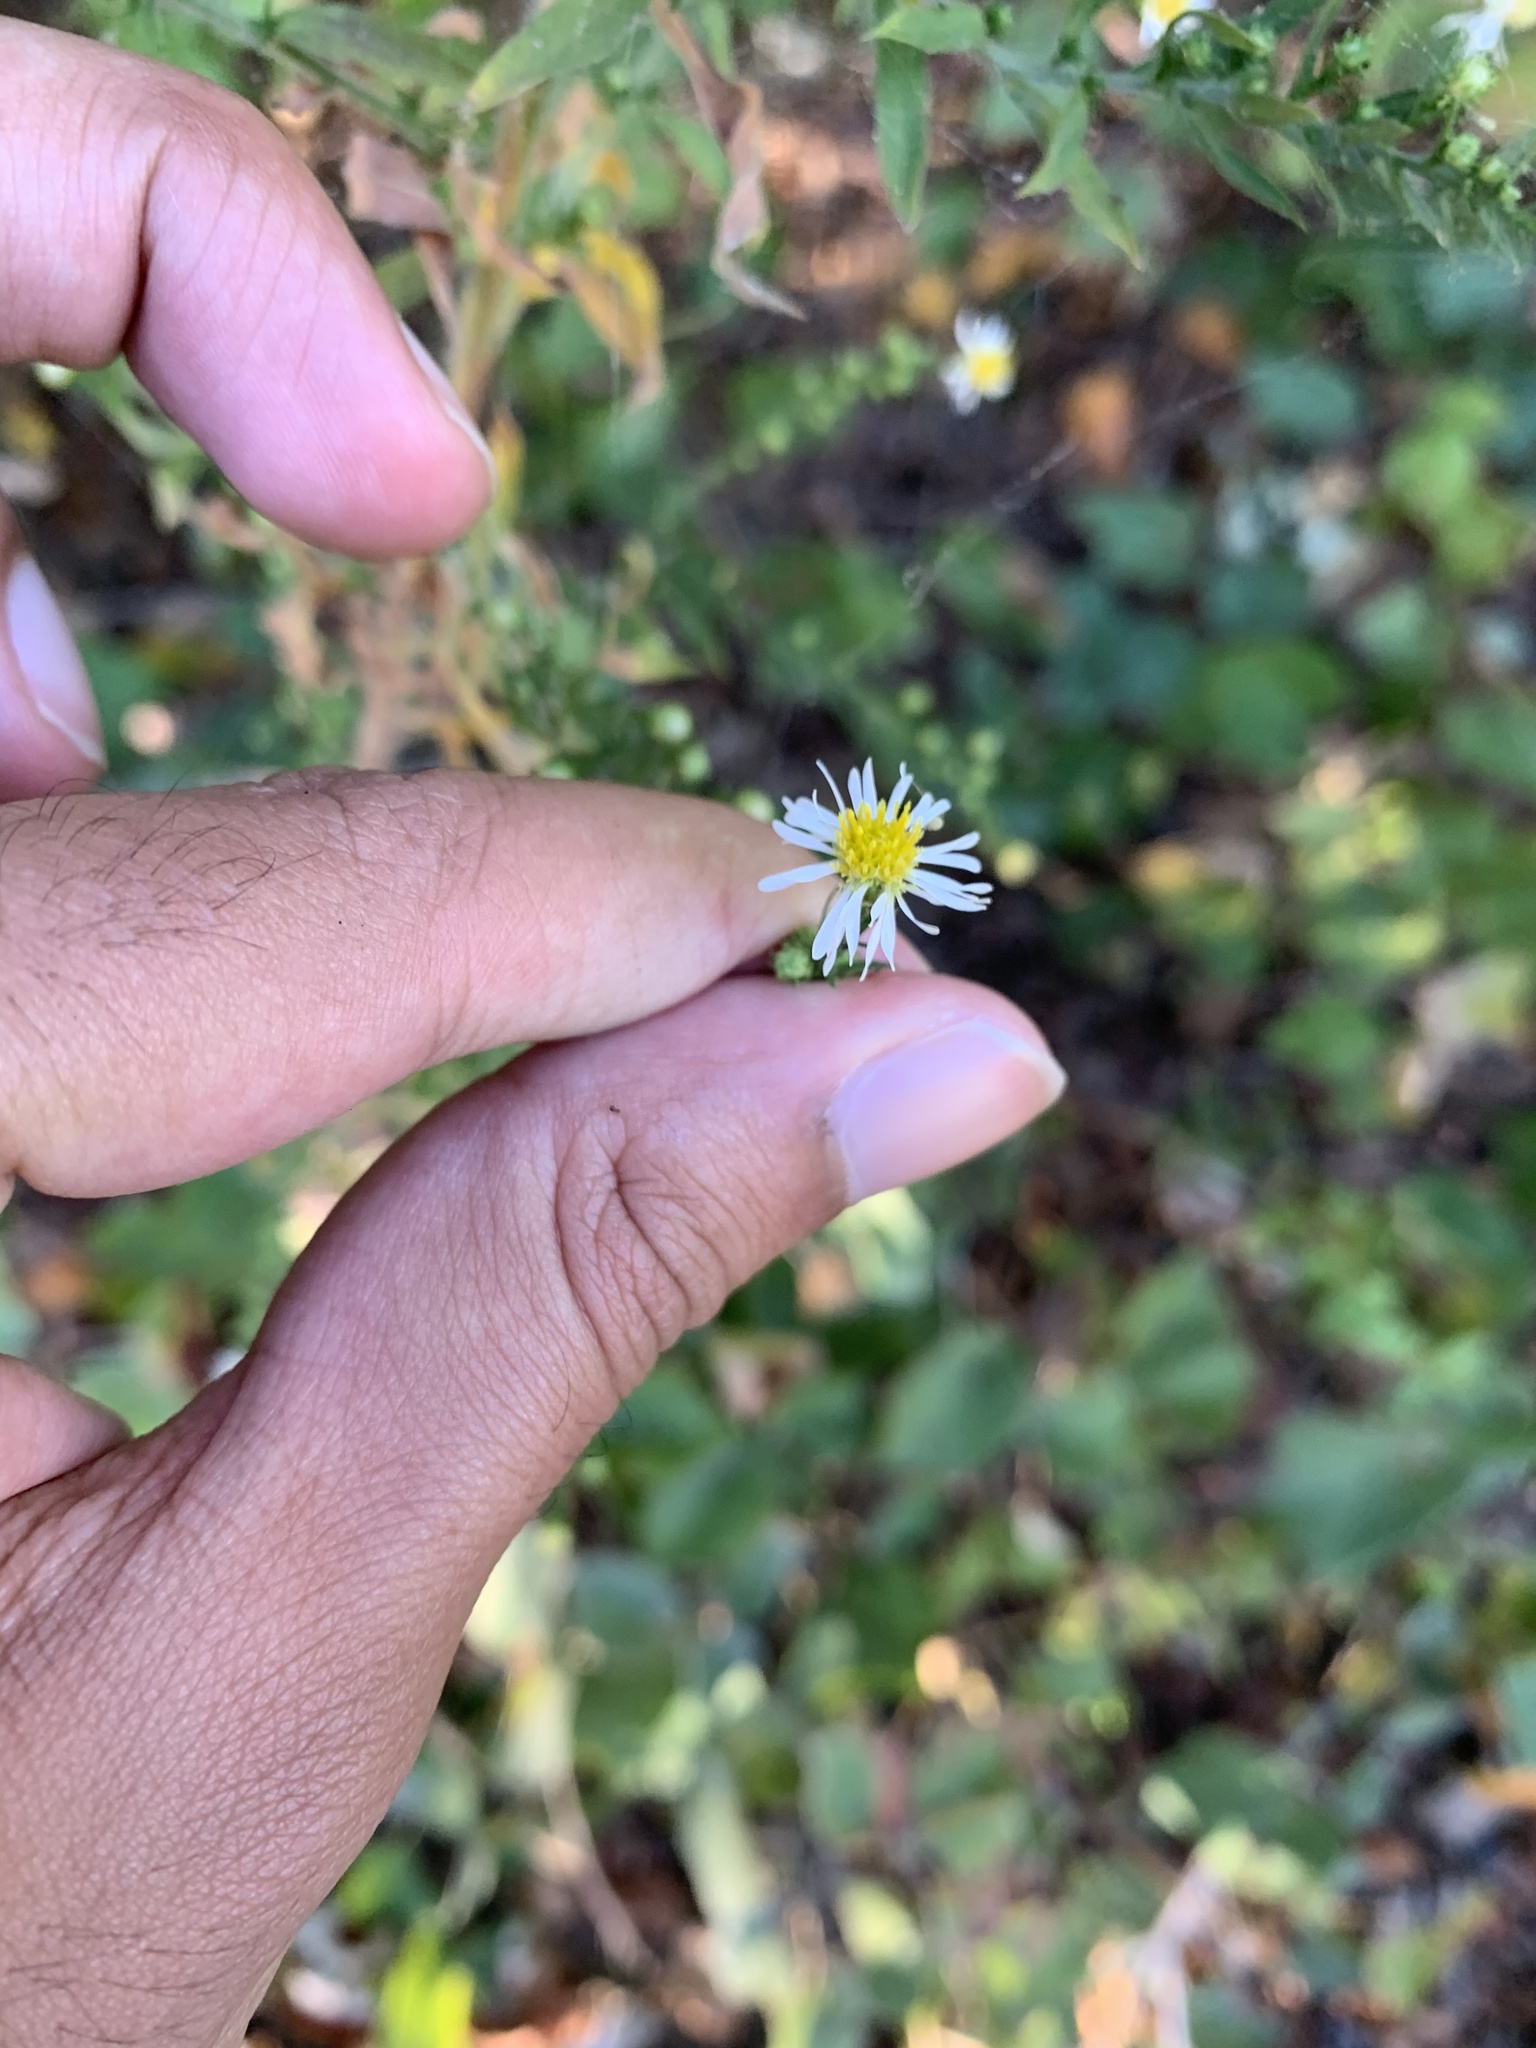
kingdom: Plantae
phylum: Tracheophyta
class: Magnoliopsida
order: Asterales
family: Asteraceae
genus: Symphyotrichum
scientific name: Symphyotrichum pilosum
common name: Awl aster
